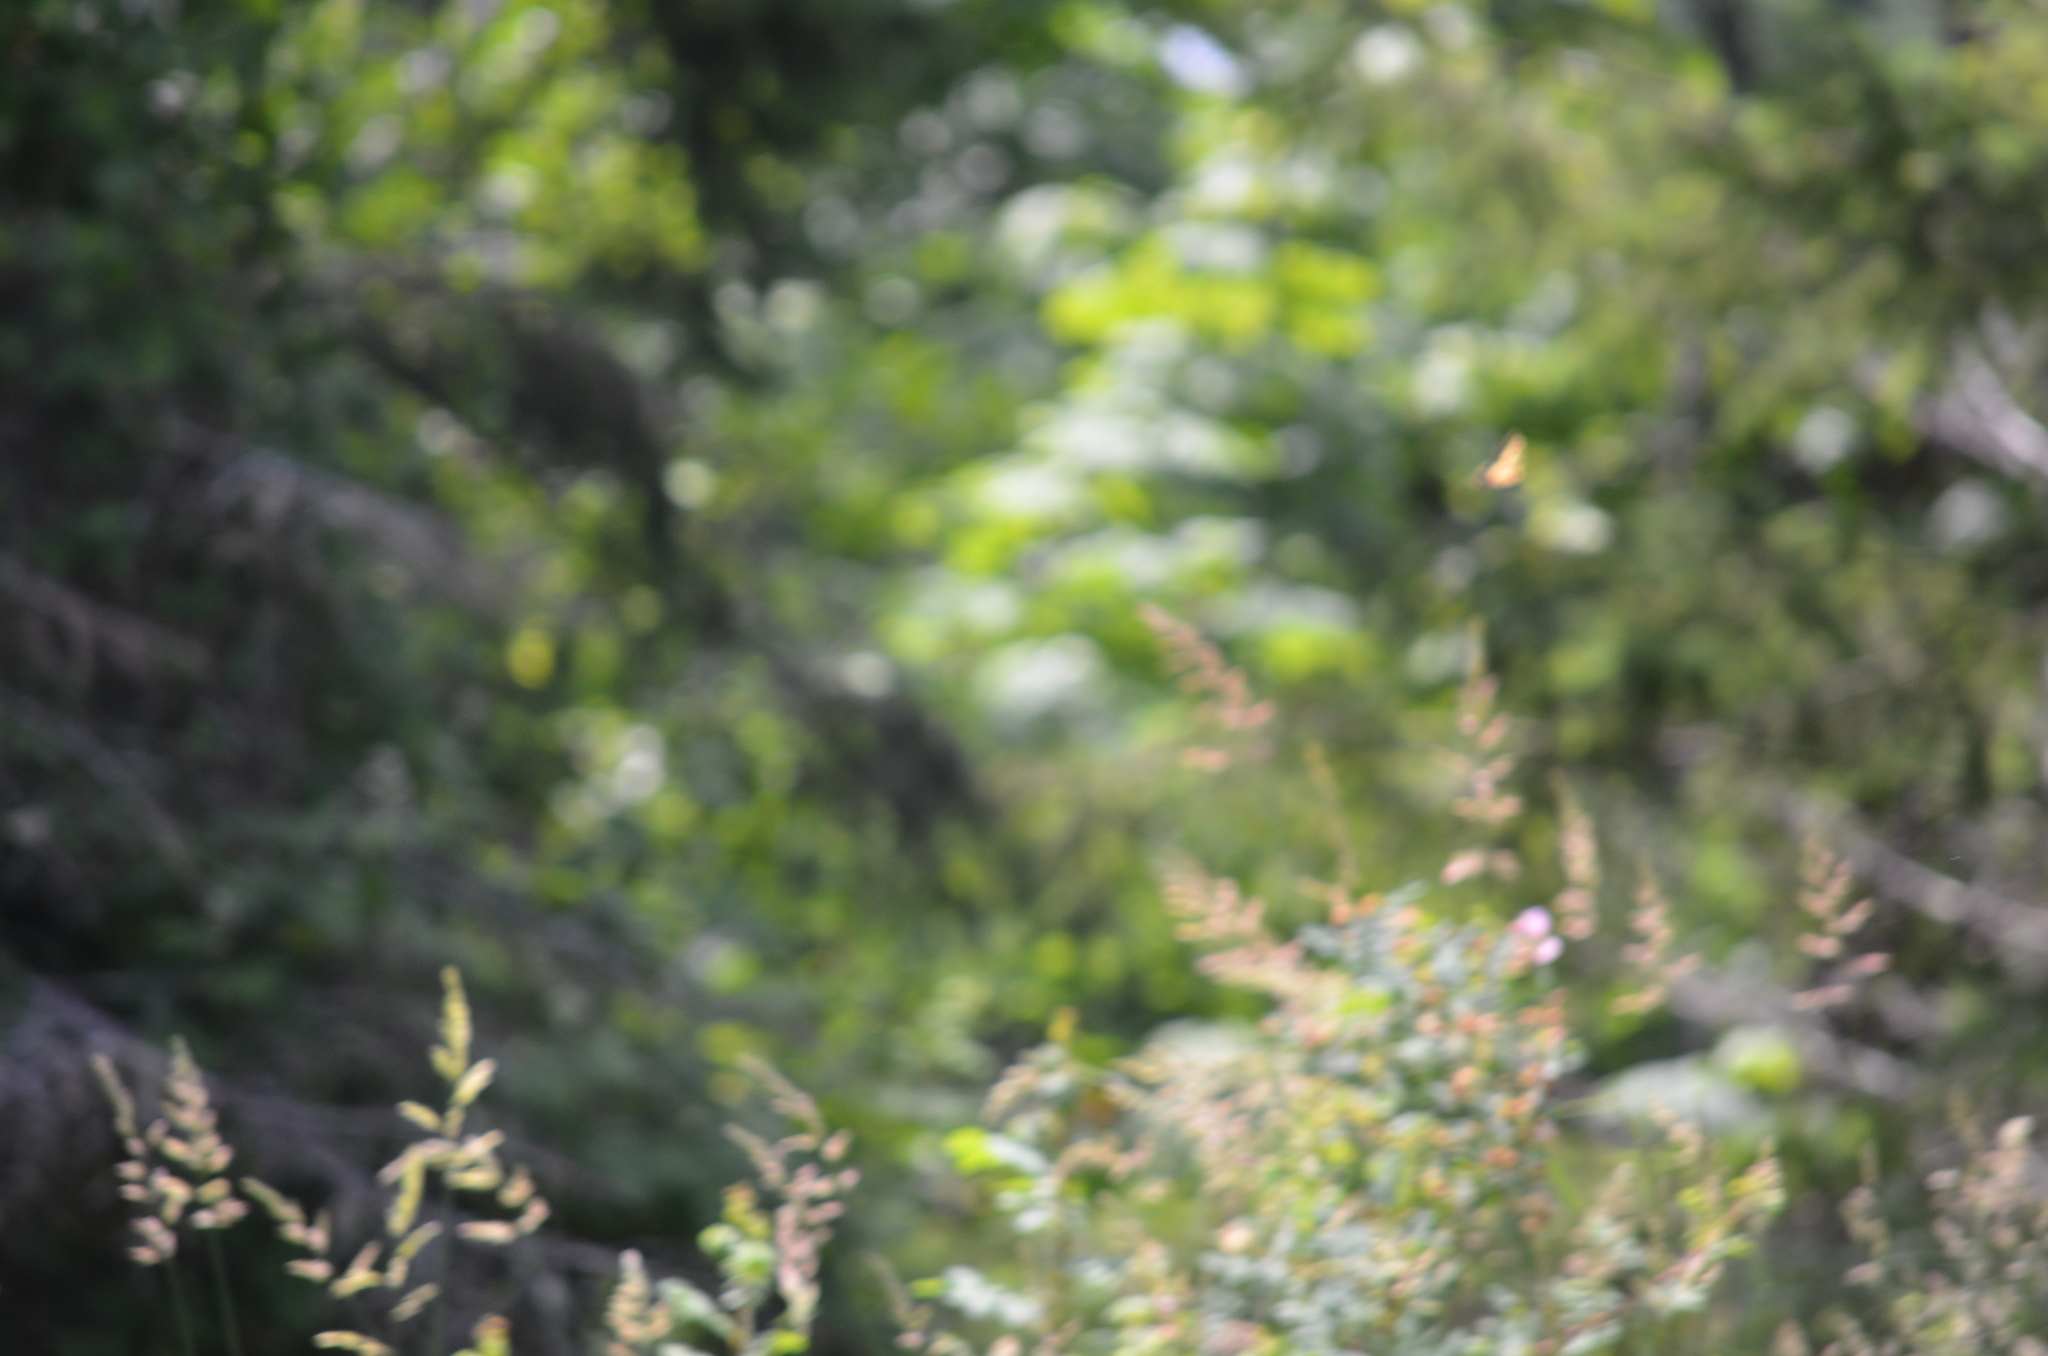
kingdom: Animalia
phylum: Arthropoda
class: Insecta
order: Lepidoptera
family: Papilionidae
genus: Papilio
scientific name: Papilio rutulus
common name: Western tiger swallowtail
